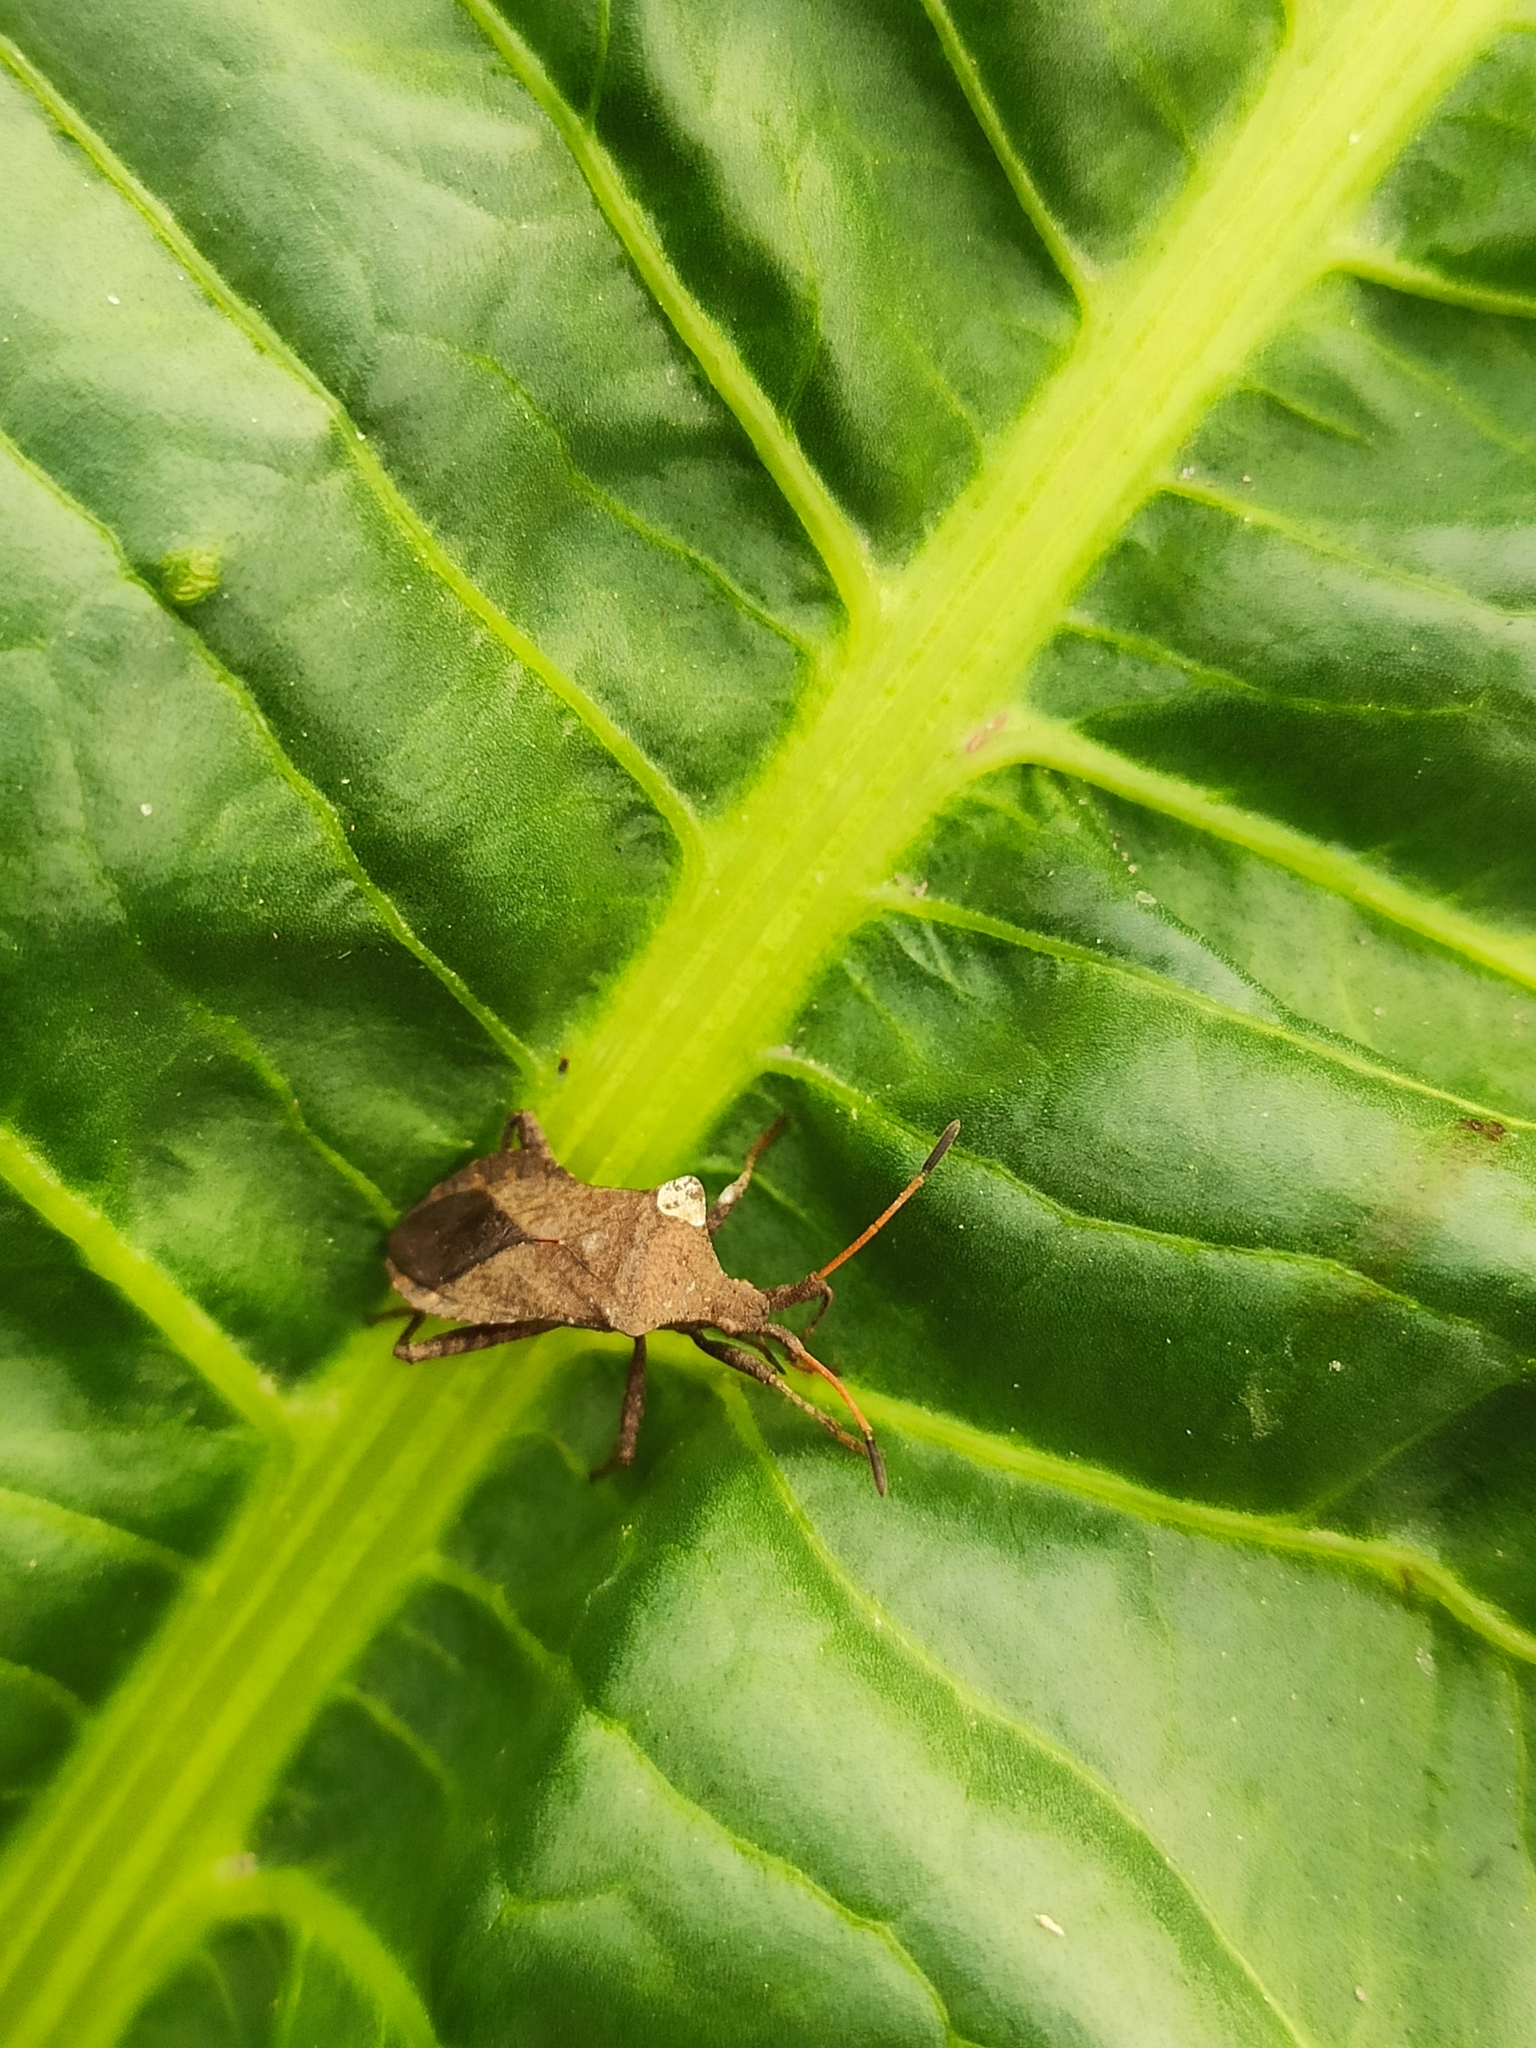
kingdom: Animalia
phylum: Arthropoda
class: Insecta
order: Hemiptera
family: Coreidae
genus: Coreus
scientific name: Coreus marginatus
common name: Dock bug
